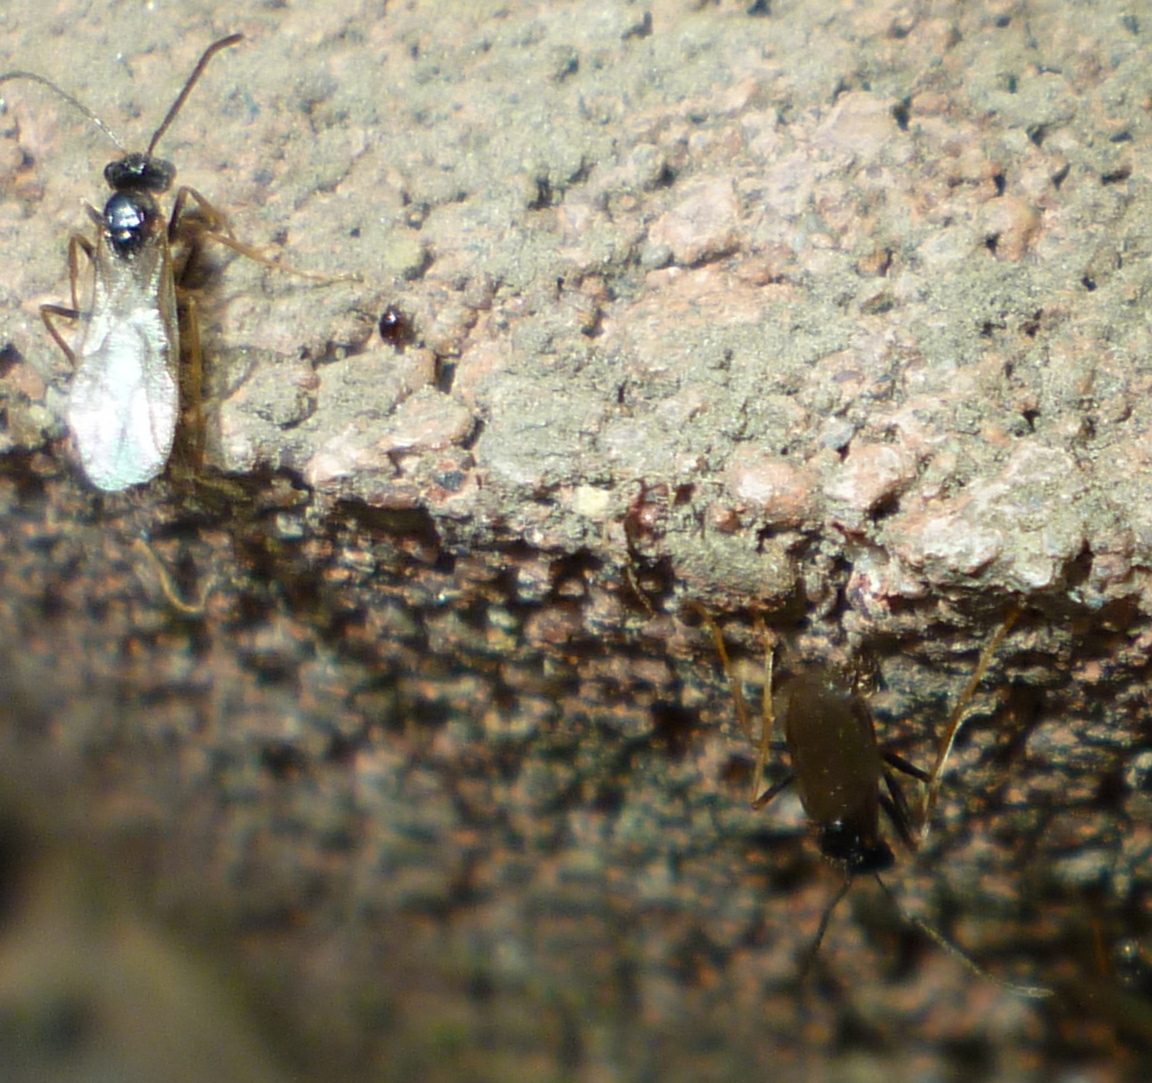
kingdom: Animalia
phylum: Arthropoda
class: Insecta
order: Hymenoptera
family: Formicidae
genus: Prenolepis
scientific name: Prenolepis imparis
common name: Small honey ant
